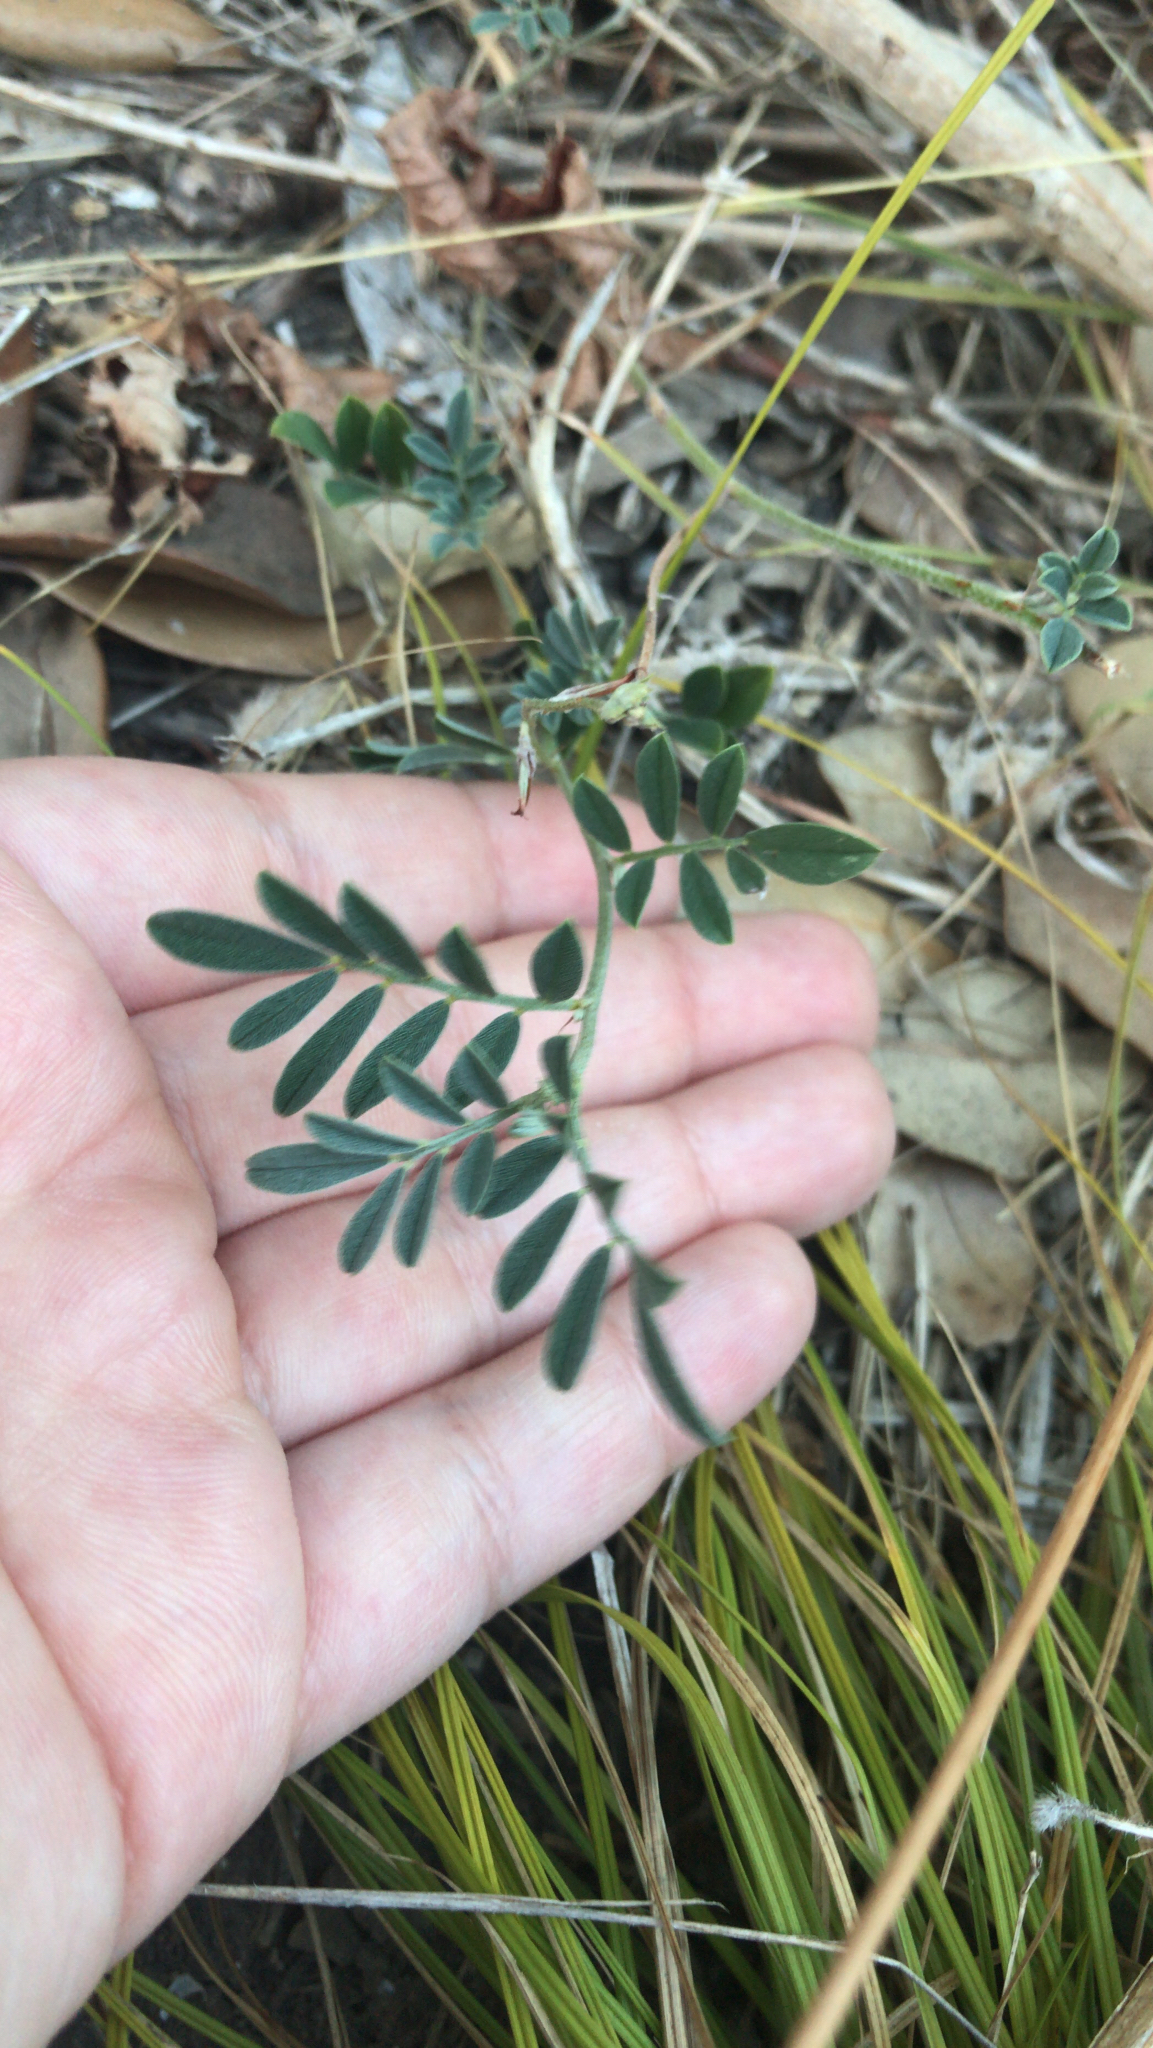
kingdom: Plantae
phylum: Tracheophyta
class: Magnoliopsida
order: Fabales
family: Fabaceae
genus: Indigofera
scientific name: Indigofera miniata
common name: Coast indigo
